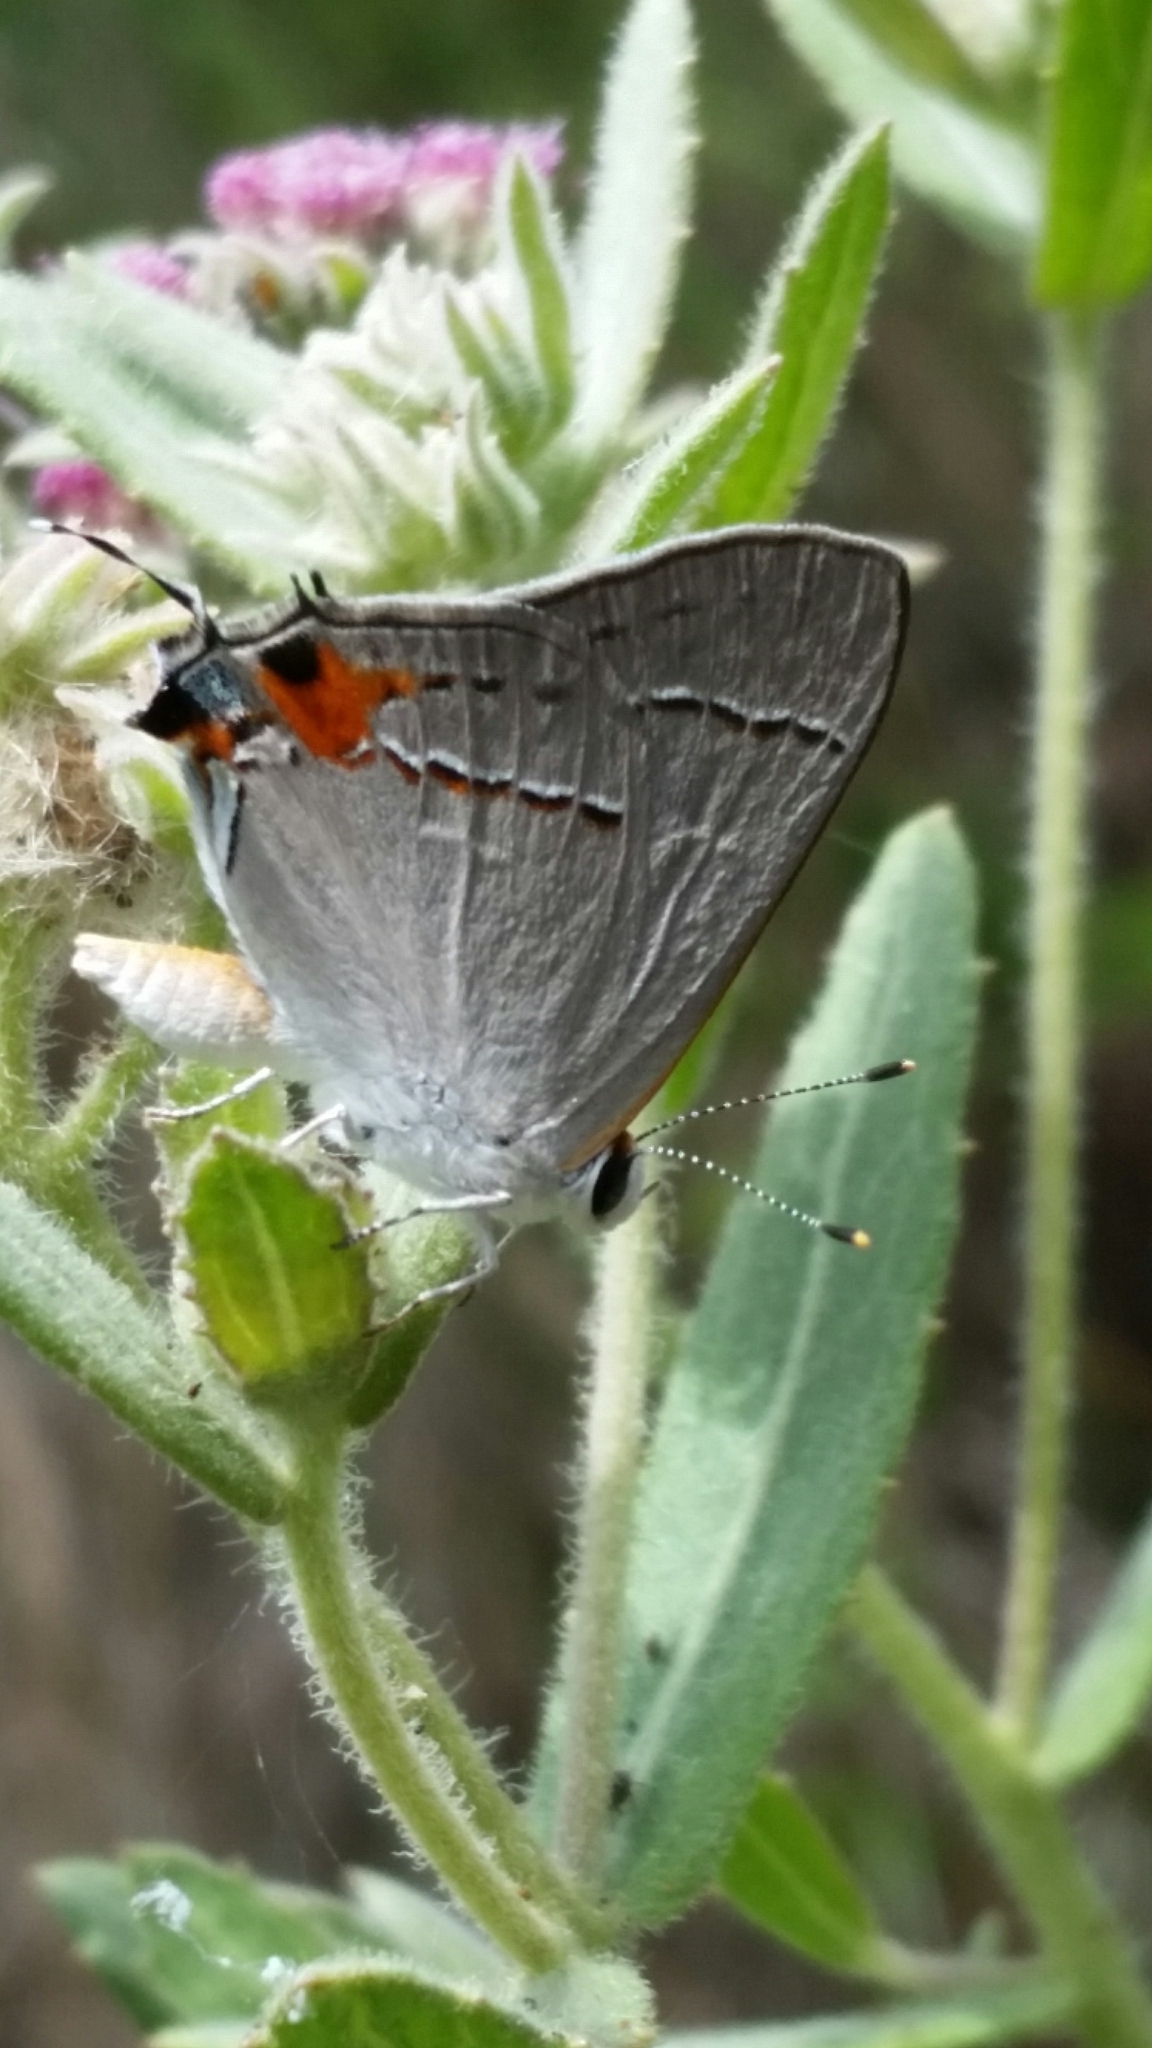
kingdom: Animalia
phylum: Arthropoda
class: Insecta
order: Lepidoptera
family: Lycaenidae
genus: Strymon
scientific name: Strymon melinus
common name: Gray hairstreak
